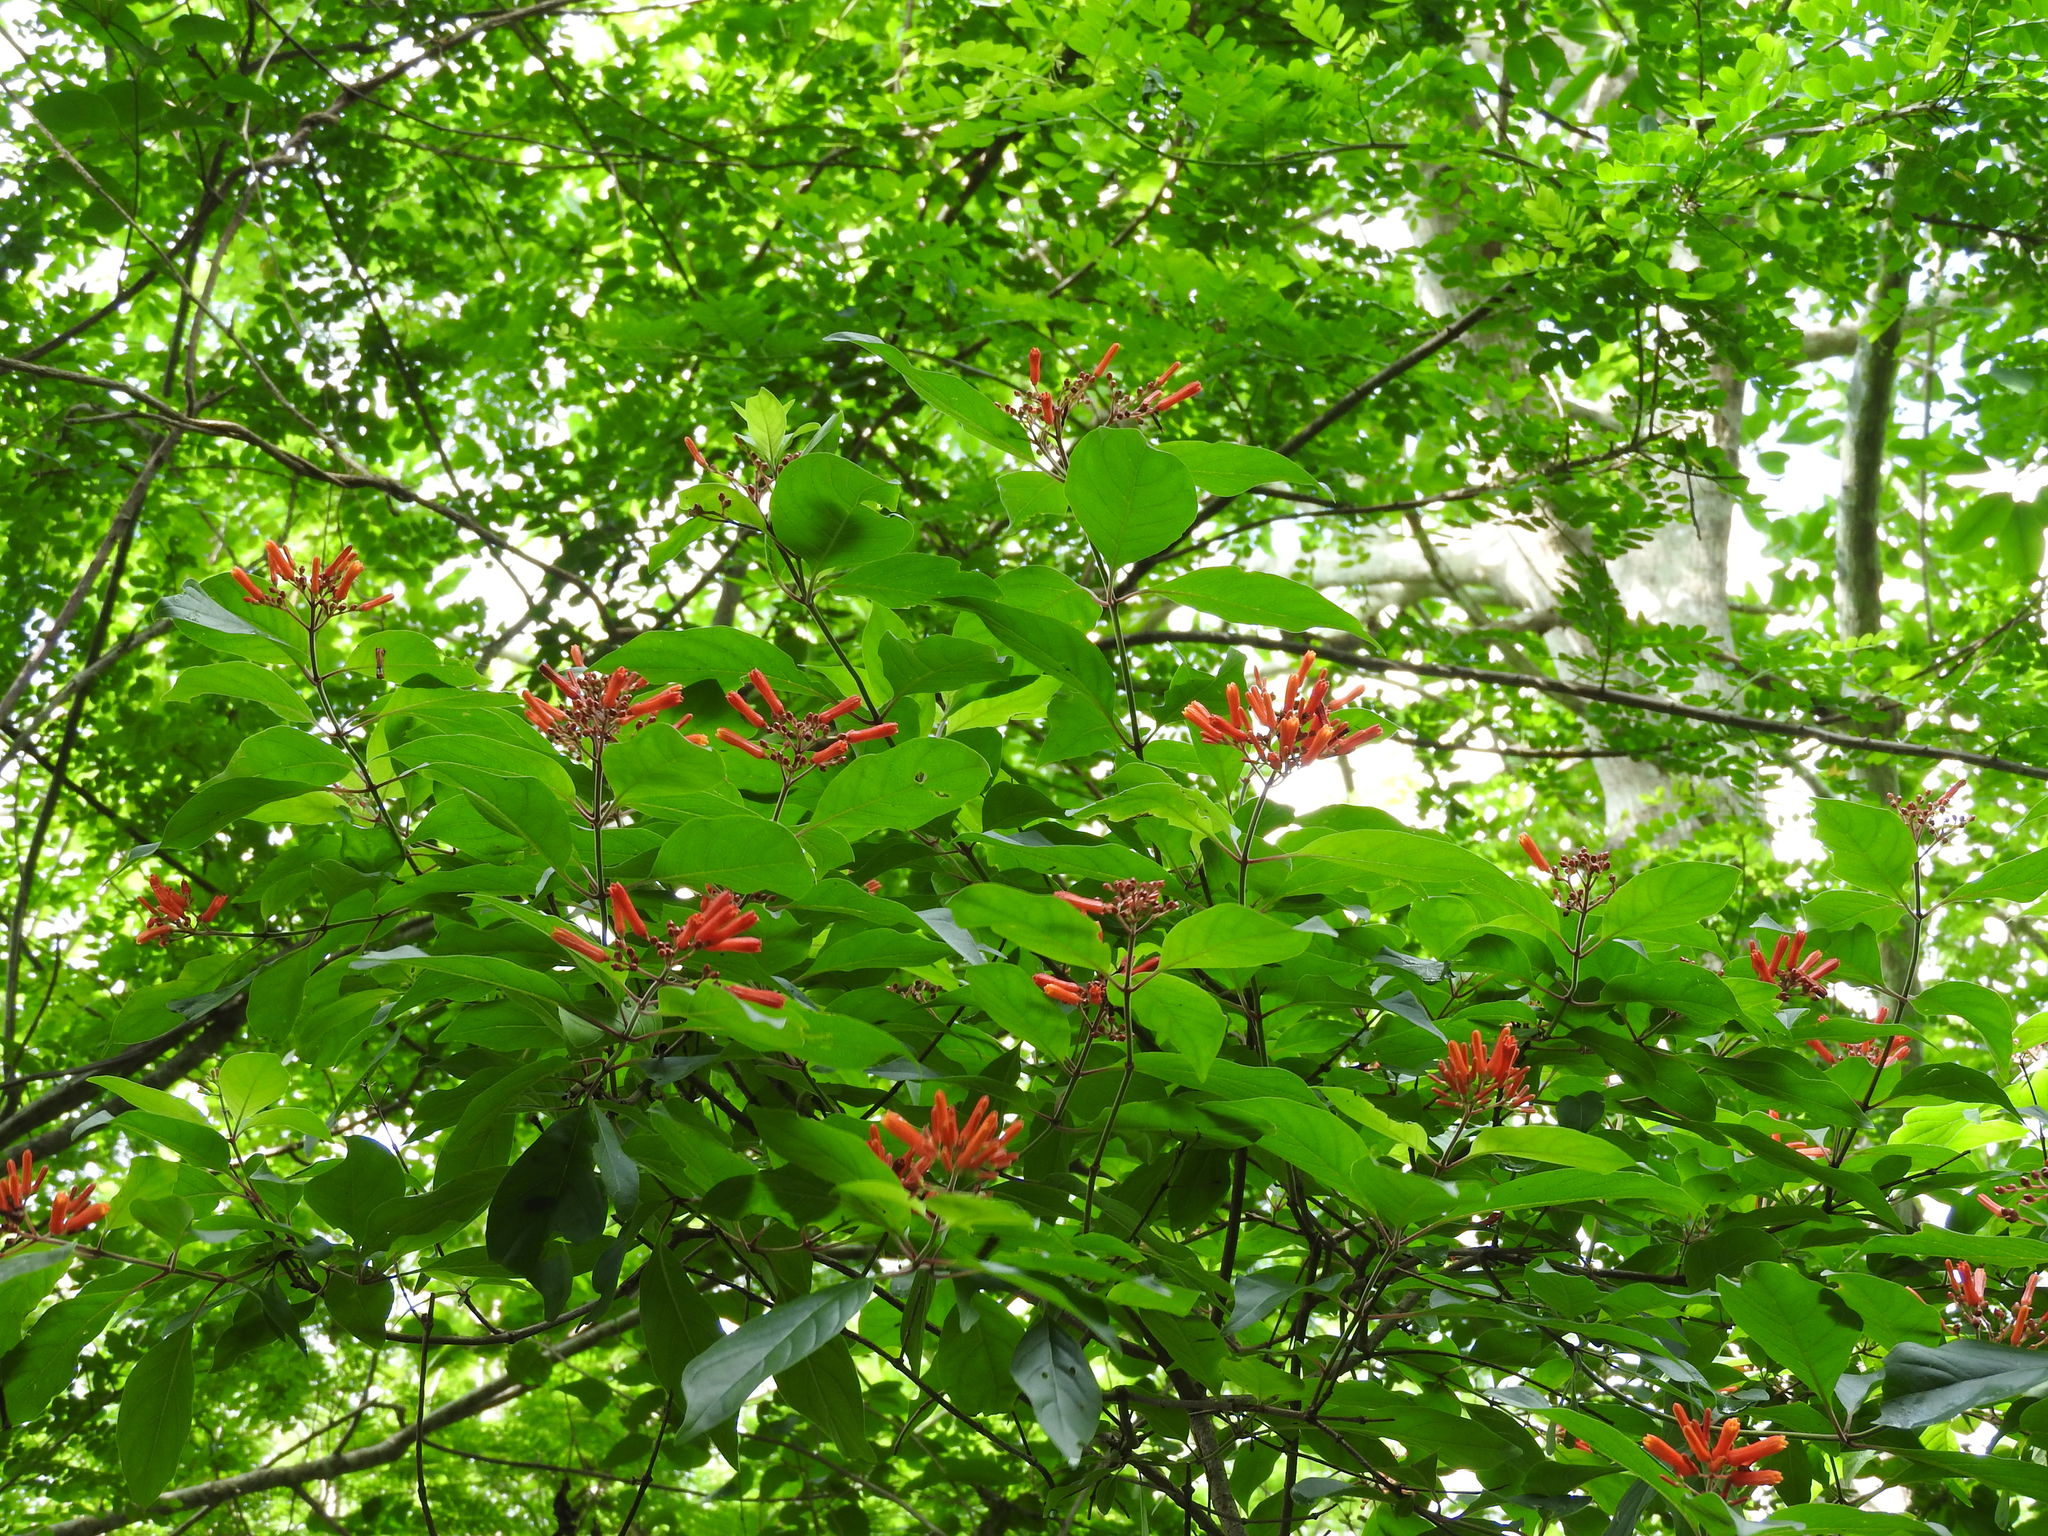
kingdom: Plantae
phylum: Tracheophyta
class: Magnoliopsida
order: Gentianales
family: Rubiaceae
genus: Hamelia
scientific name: Hamelia patens
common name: Redhead
